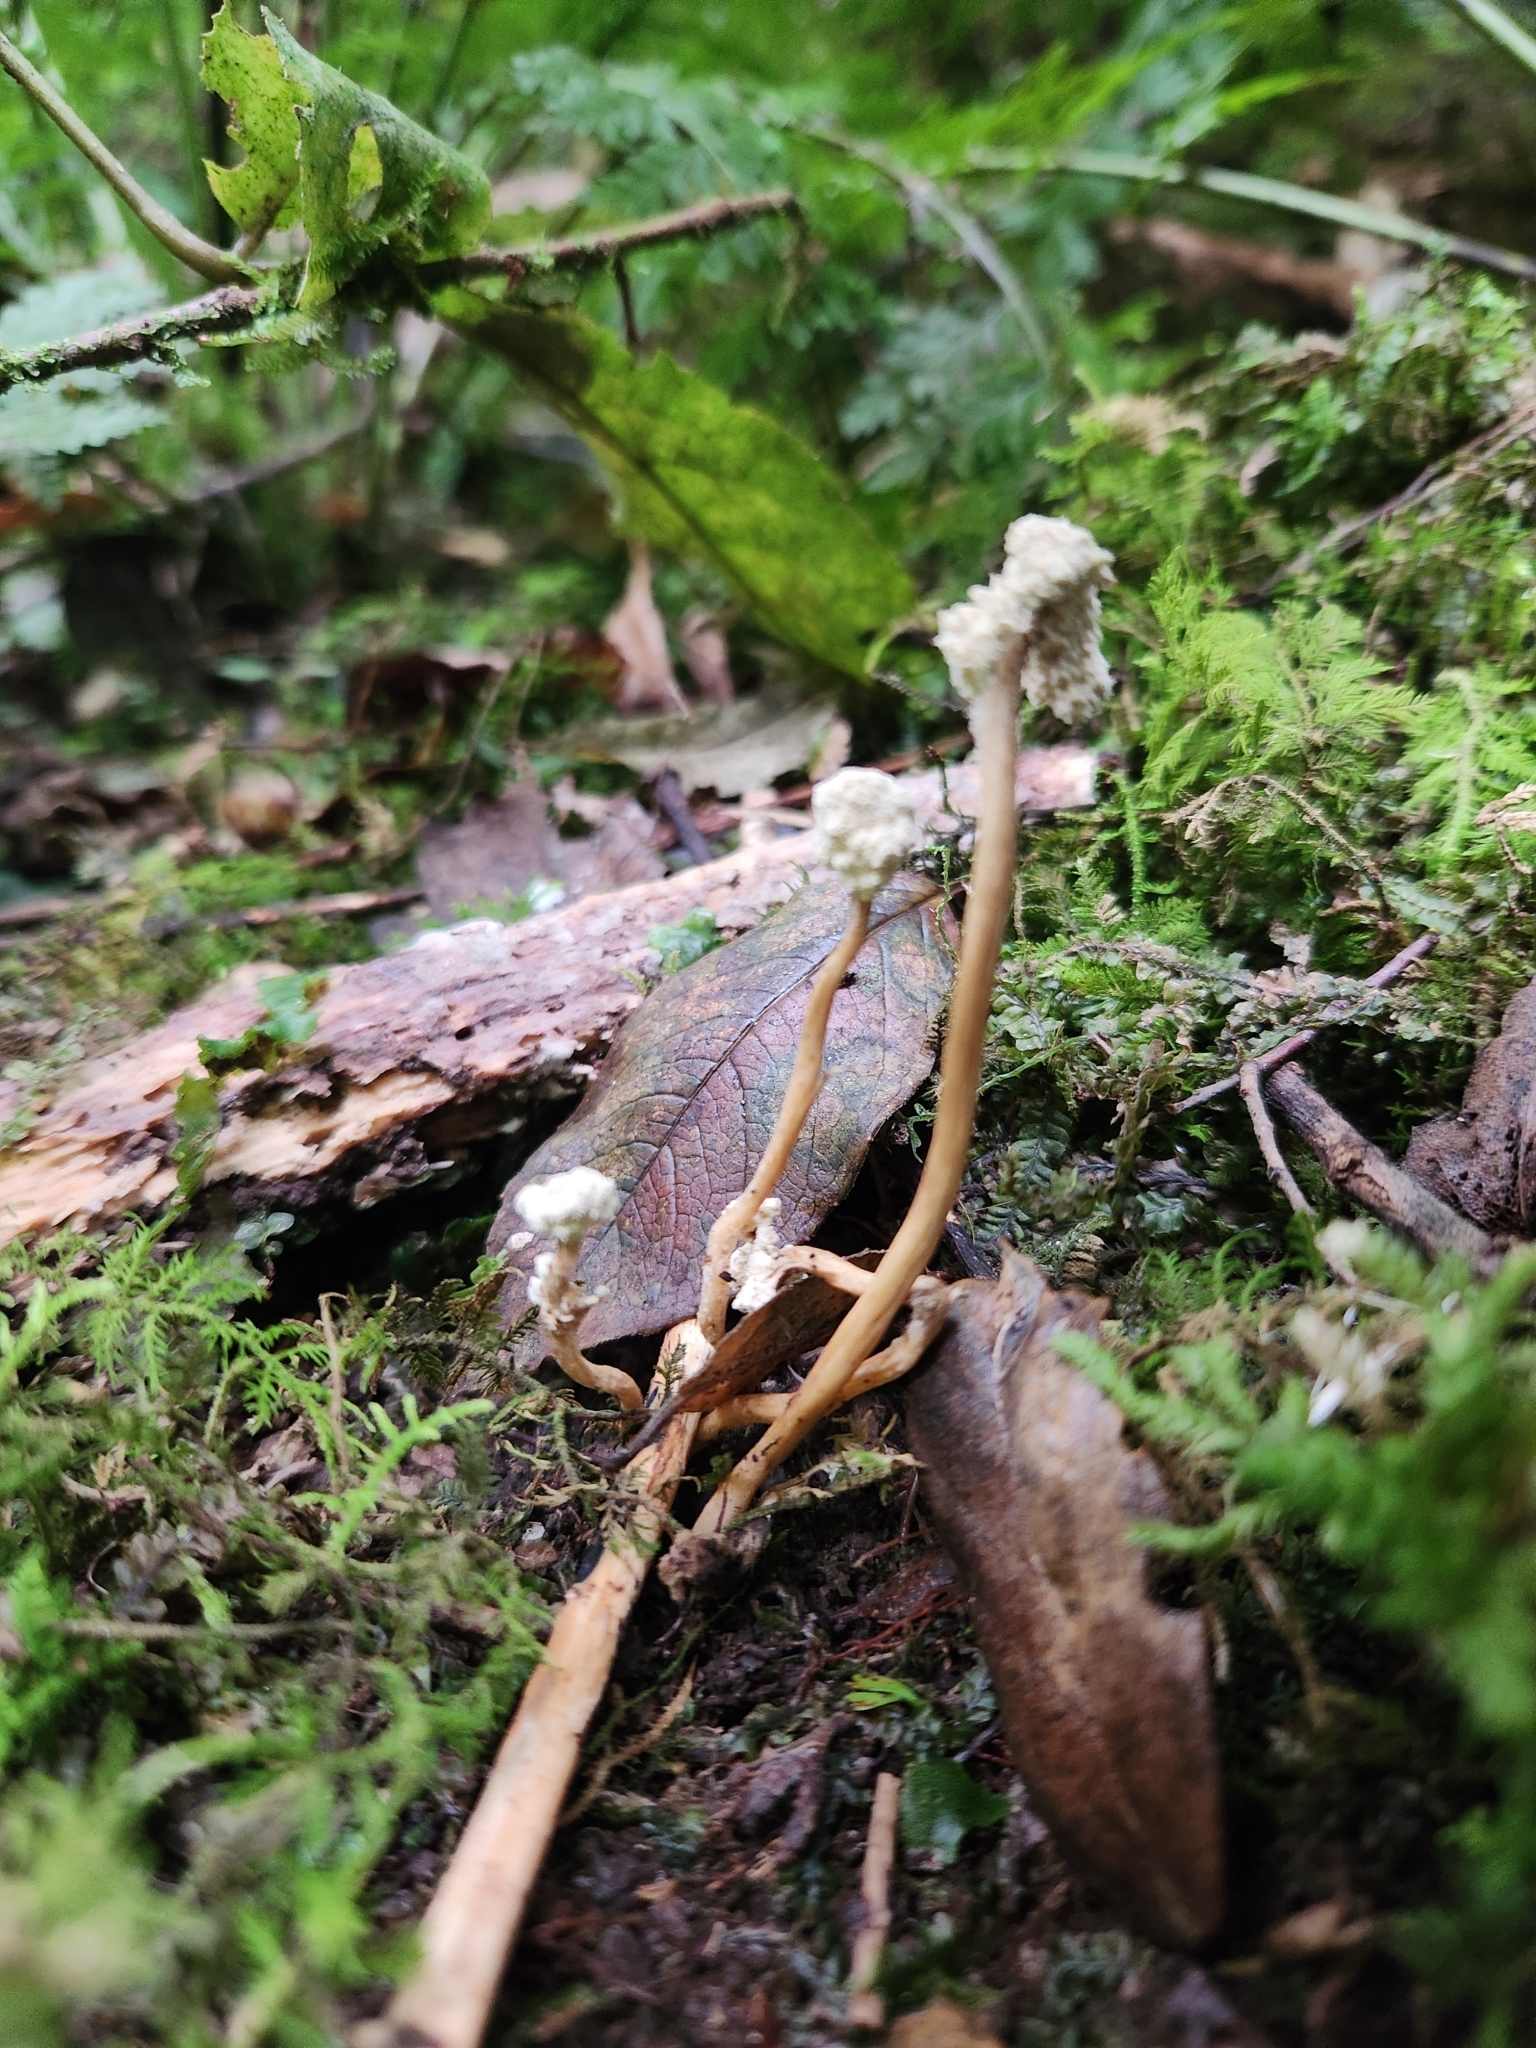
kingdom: Fungi
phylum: Ascomycota
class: Sordariomycetes
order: Hypocreales
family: Cordycipitaceae
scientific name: Cordycipitaceae
